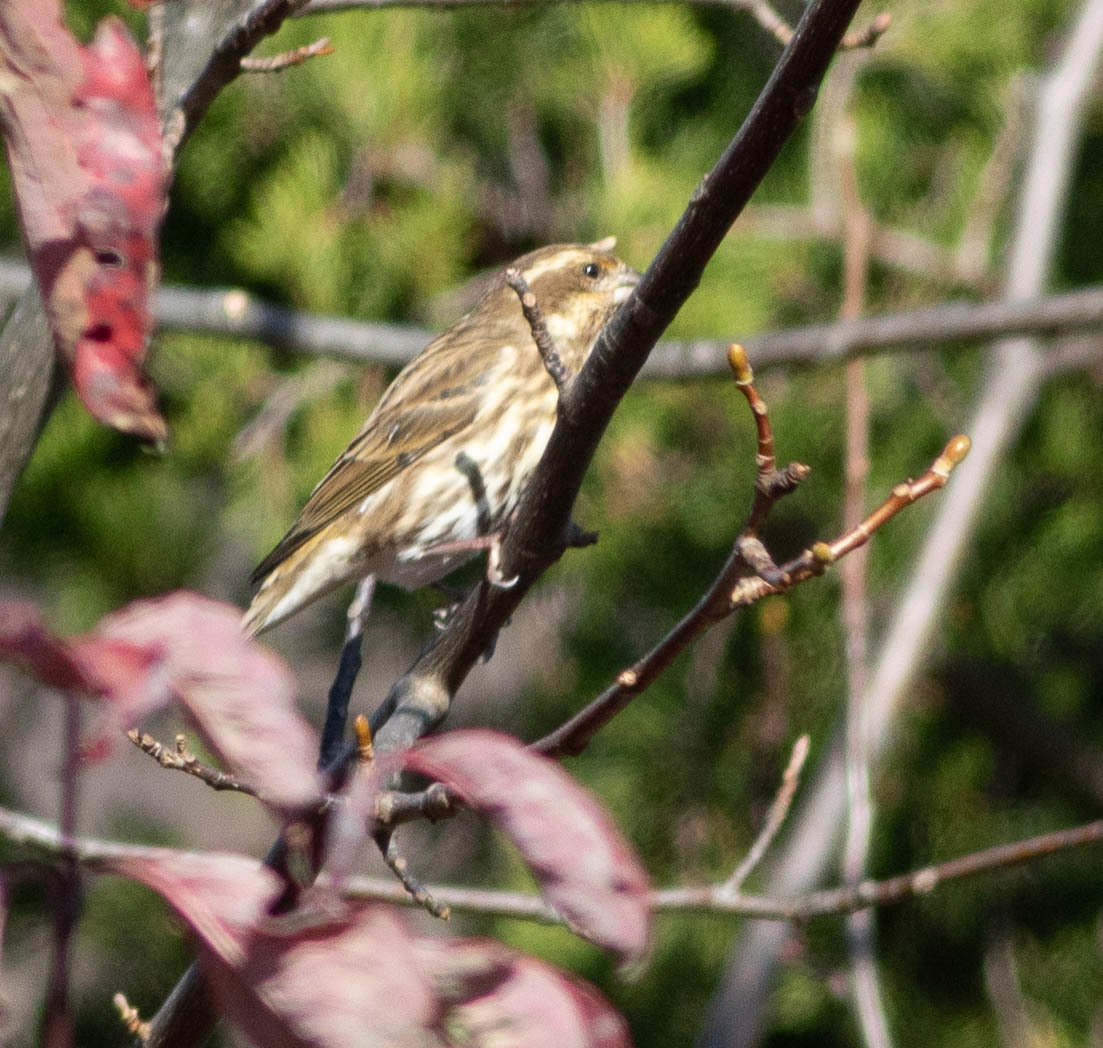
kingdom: Animalia
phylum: Chordata
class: Aves
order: Passeriformes
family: Fringillidae
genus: Haemorhous
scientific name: Haemorhous purpureus
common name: Purple finch
